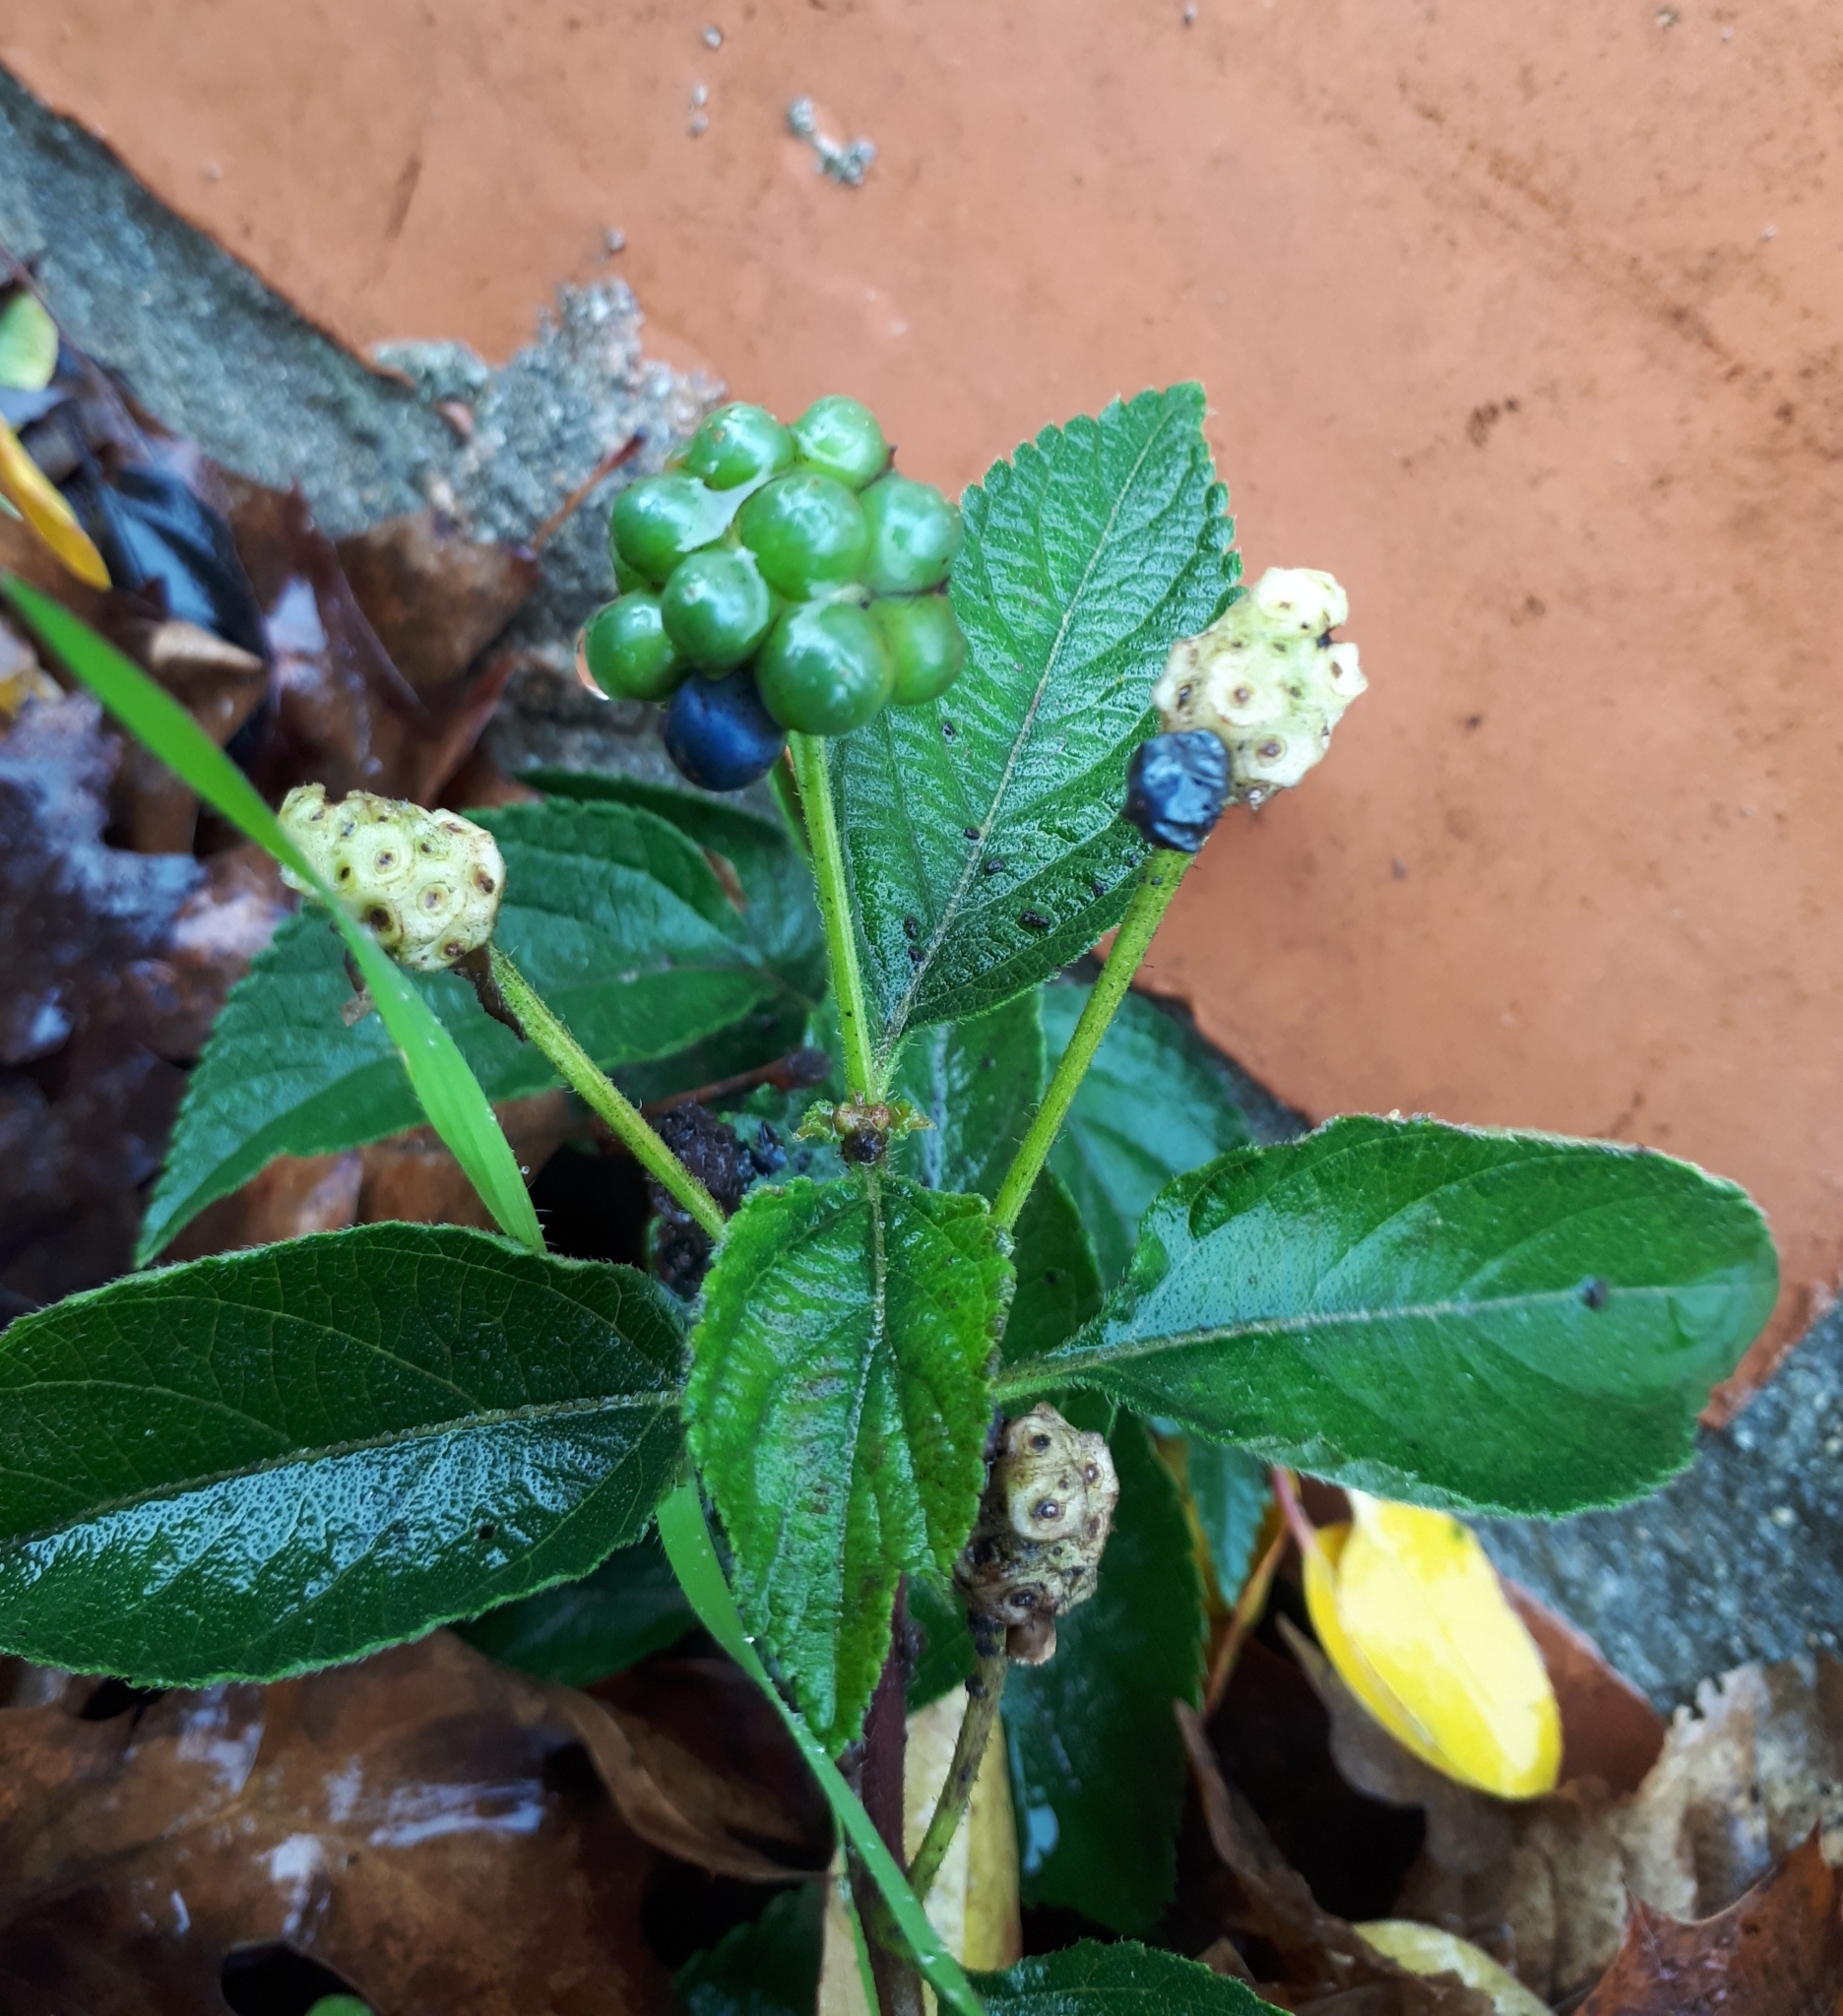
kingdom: Plantae
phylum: Tracheophyta
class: Magnoliopsida
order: Lamiales
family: Verbenaceae
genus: Lantana
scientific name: Lantana camara
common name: Lantana
